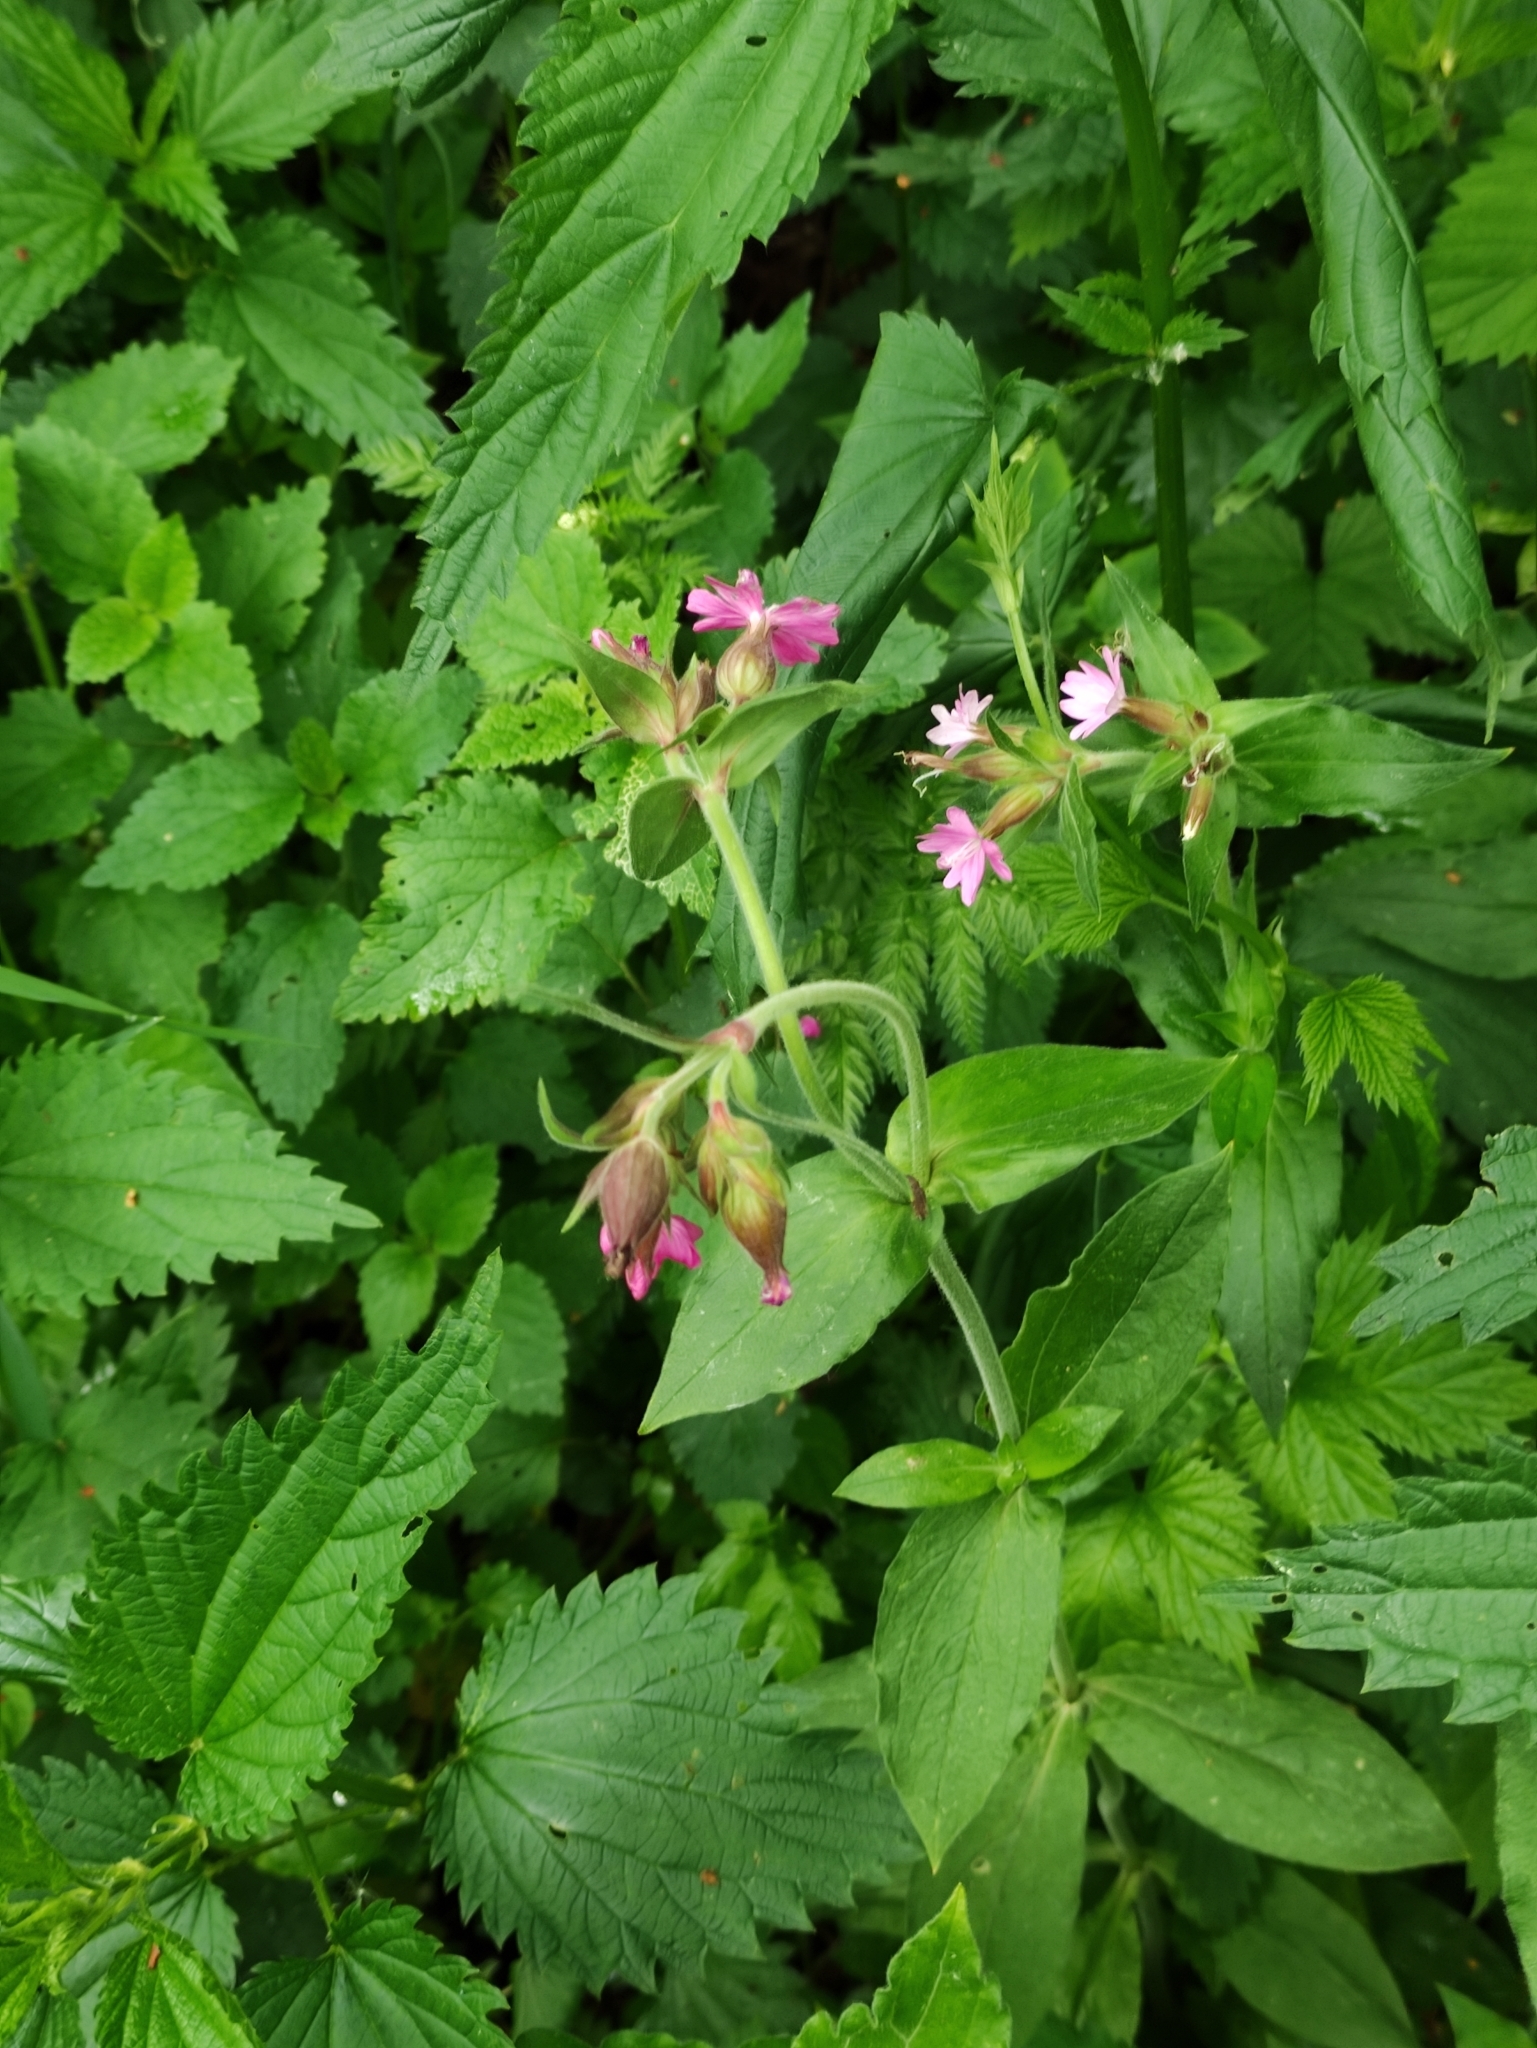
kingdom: Plantae
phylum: Tracheophyta
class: Magnoliopsida
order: Caryophyllales
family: Caryophyllaceae
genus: Silene
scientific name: Silene dioica
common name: Red campion
